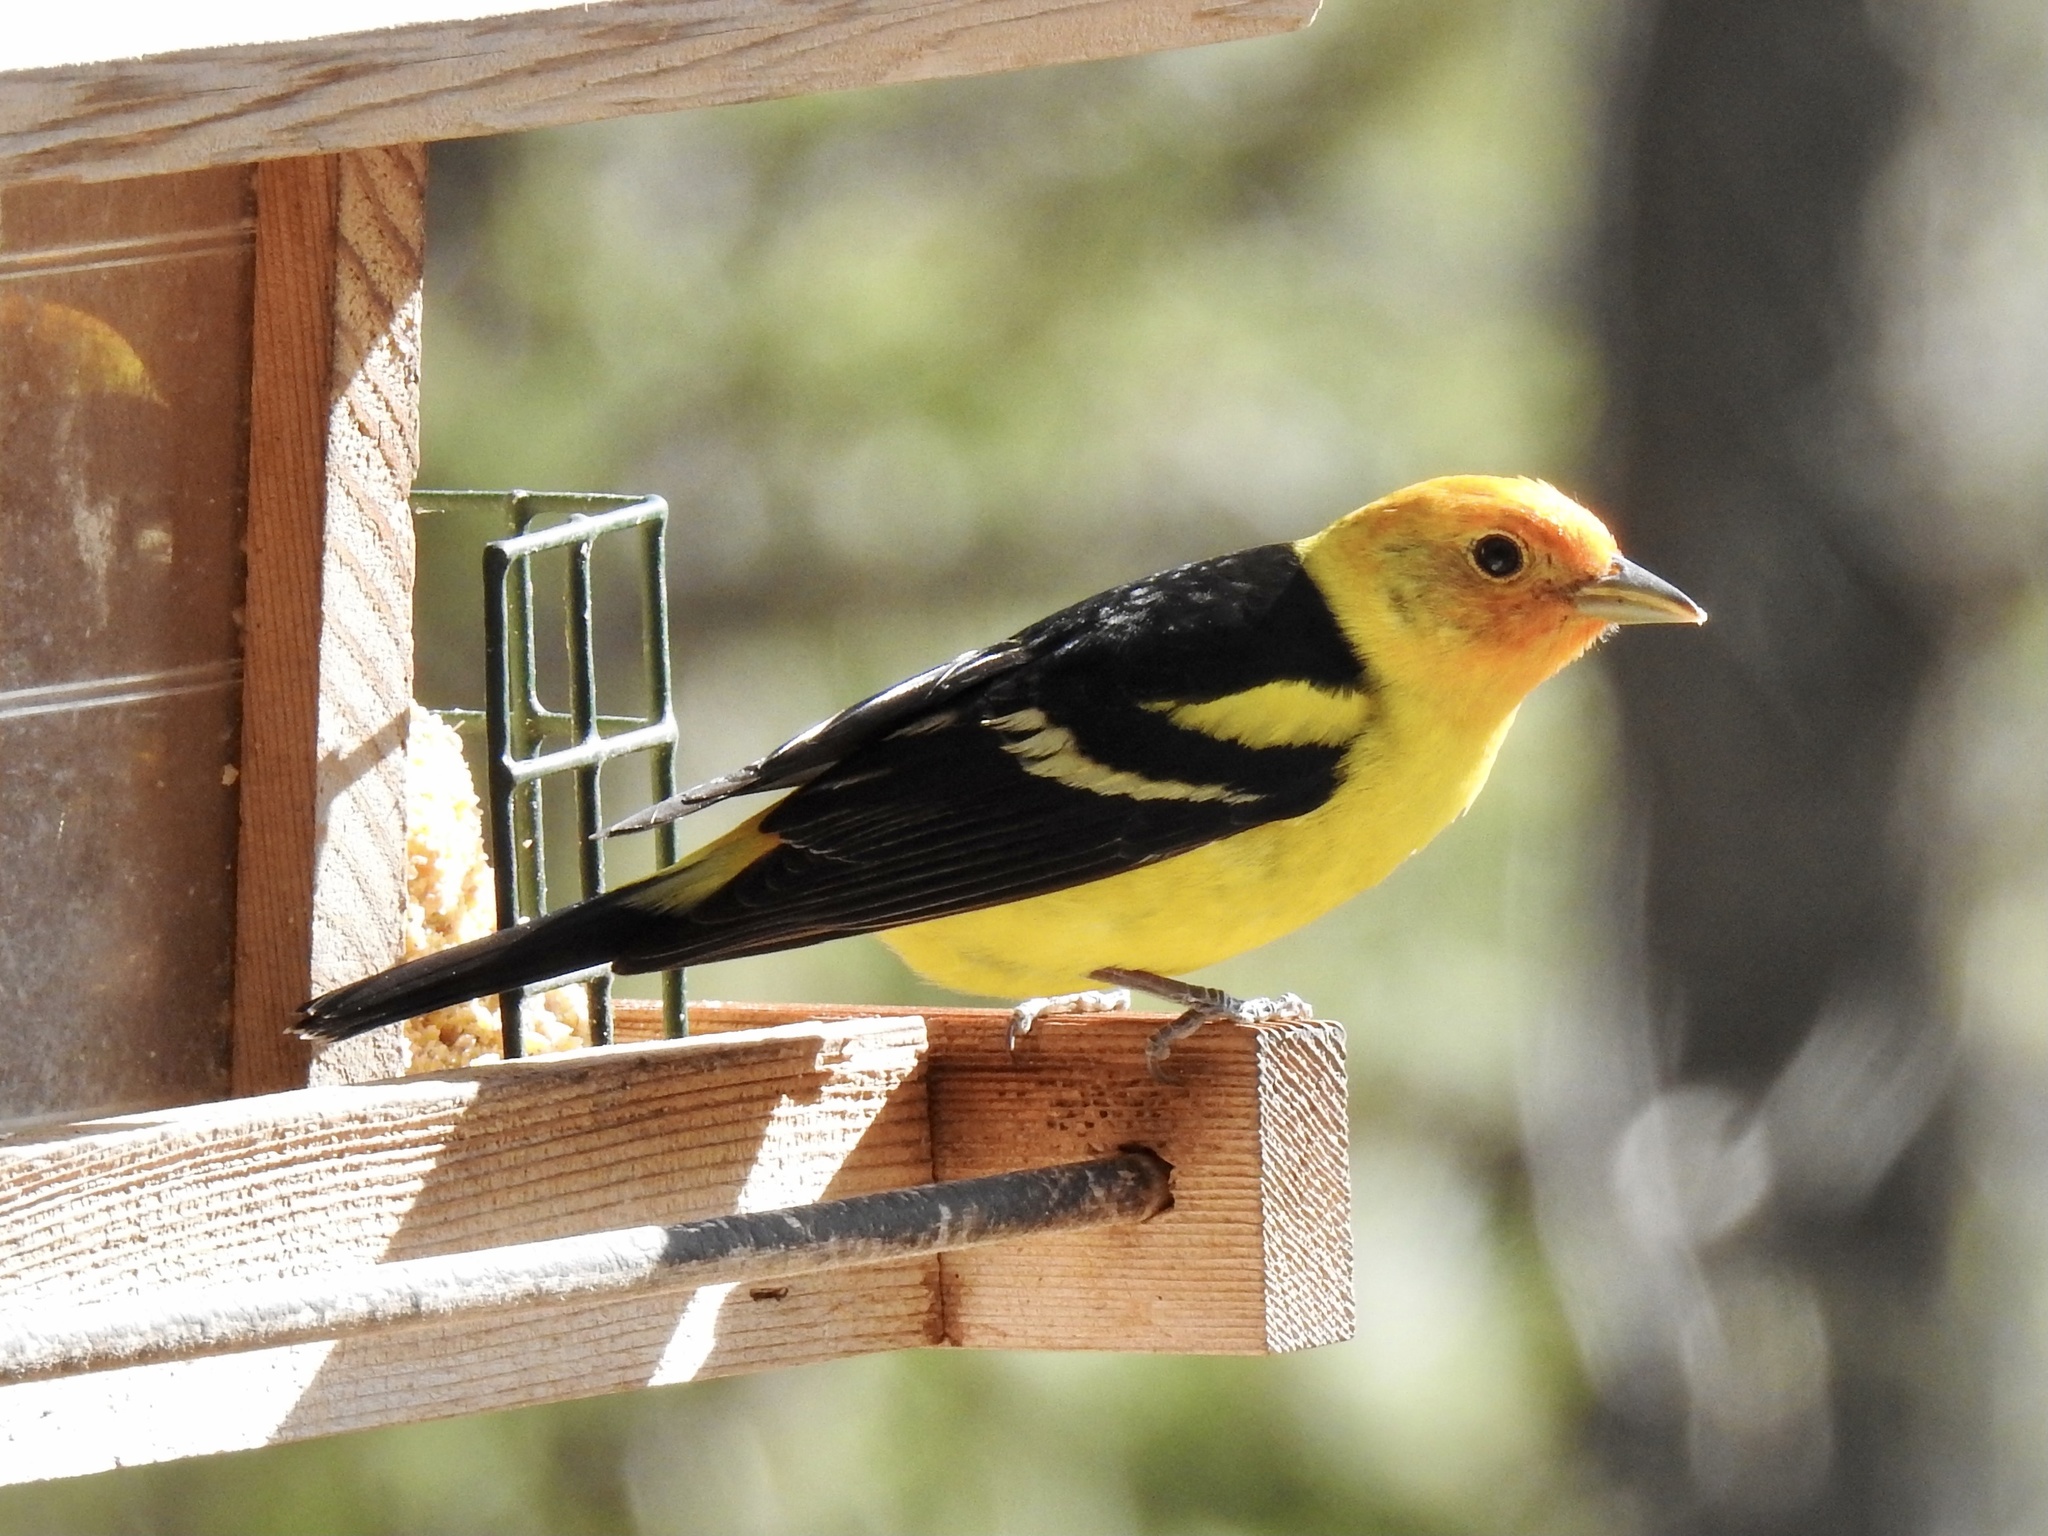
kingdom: Animalia
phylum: Chordata
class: Aves
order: Passeriformes
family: Cardinalidae
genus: Piranga
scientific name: Piranga ludoviciana
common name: Western tanager
